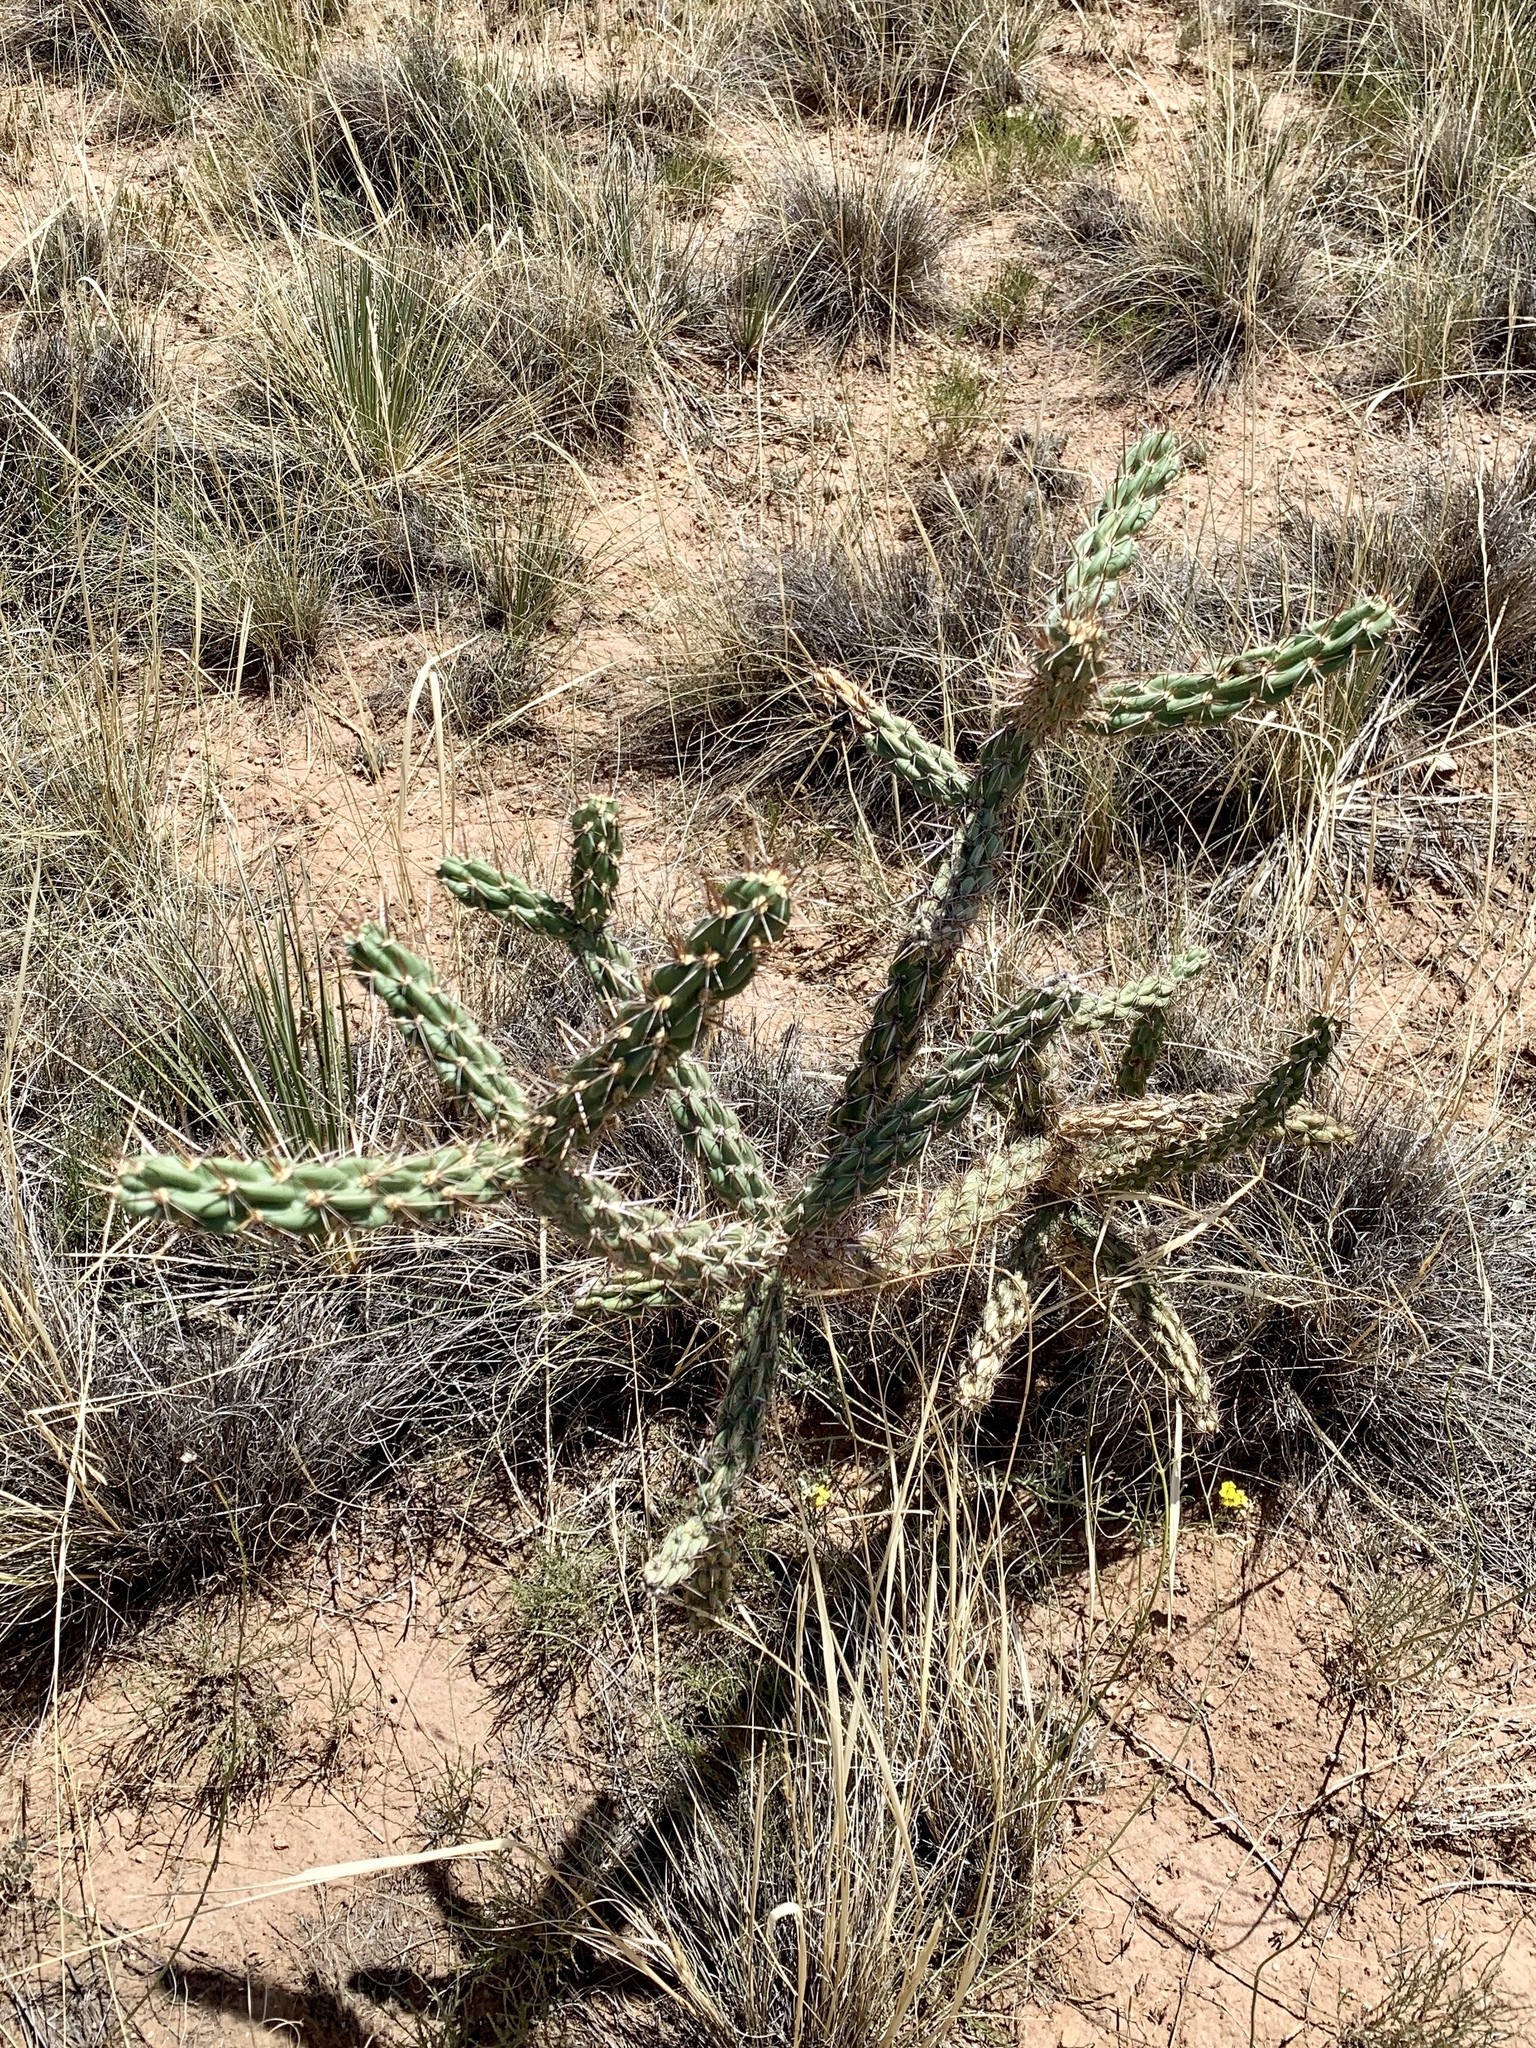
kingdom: Plantae
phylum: Tracheophyta
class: Magnoliopsida
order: Caryophyllales
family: Cactaceae
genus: Cylindropuntia
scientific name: Cylindropuntia imbricata
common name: Candelabrum cactus
